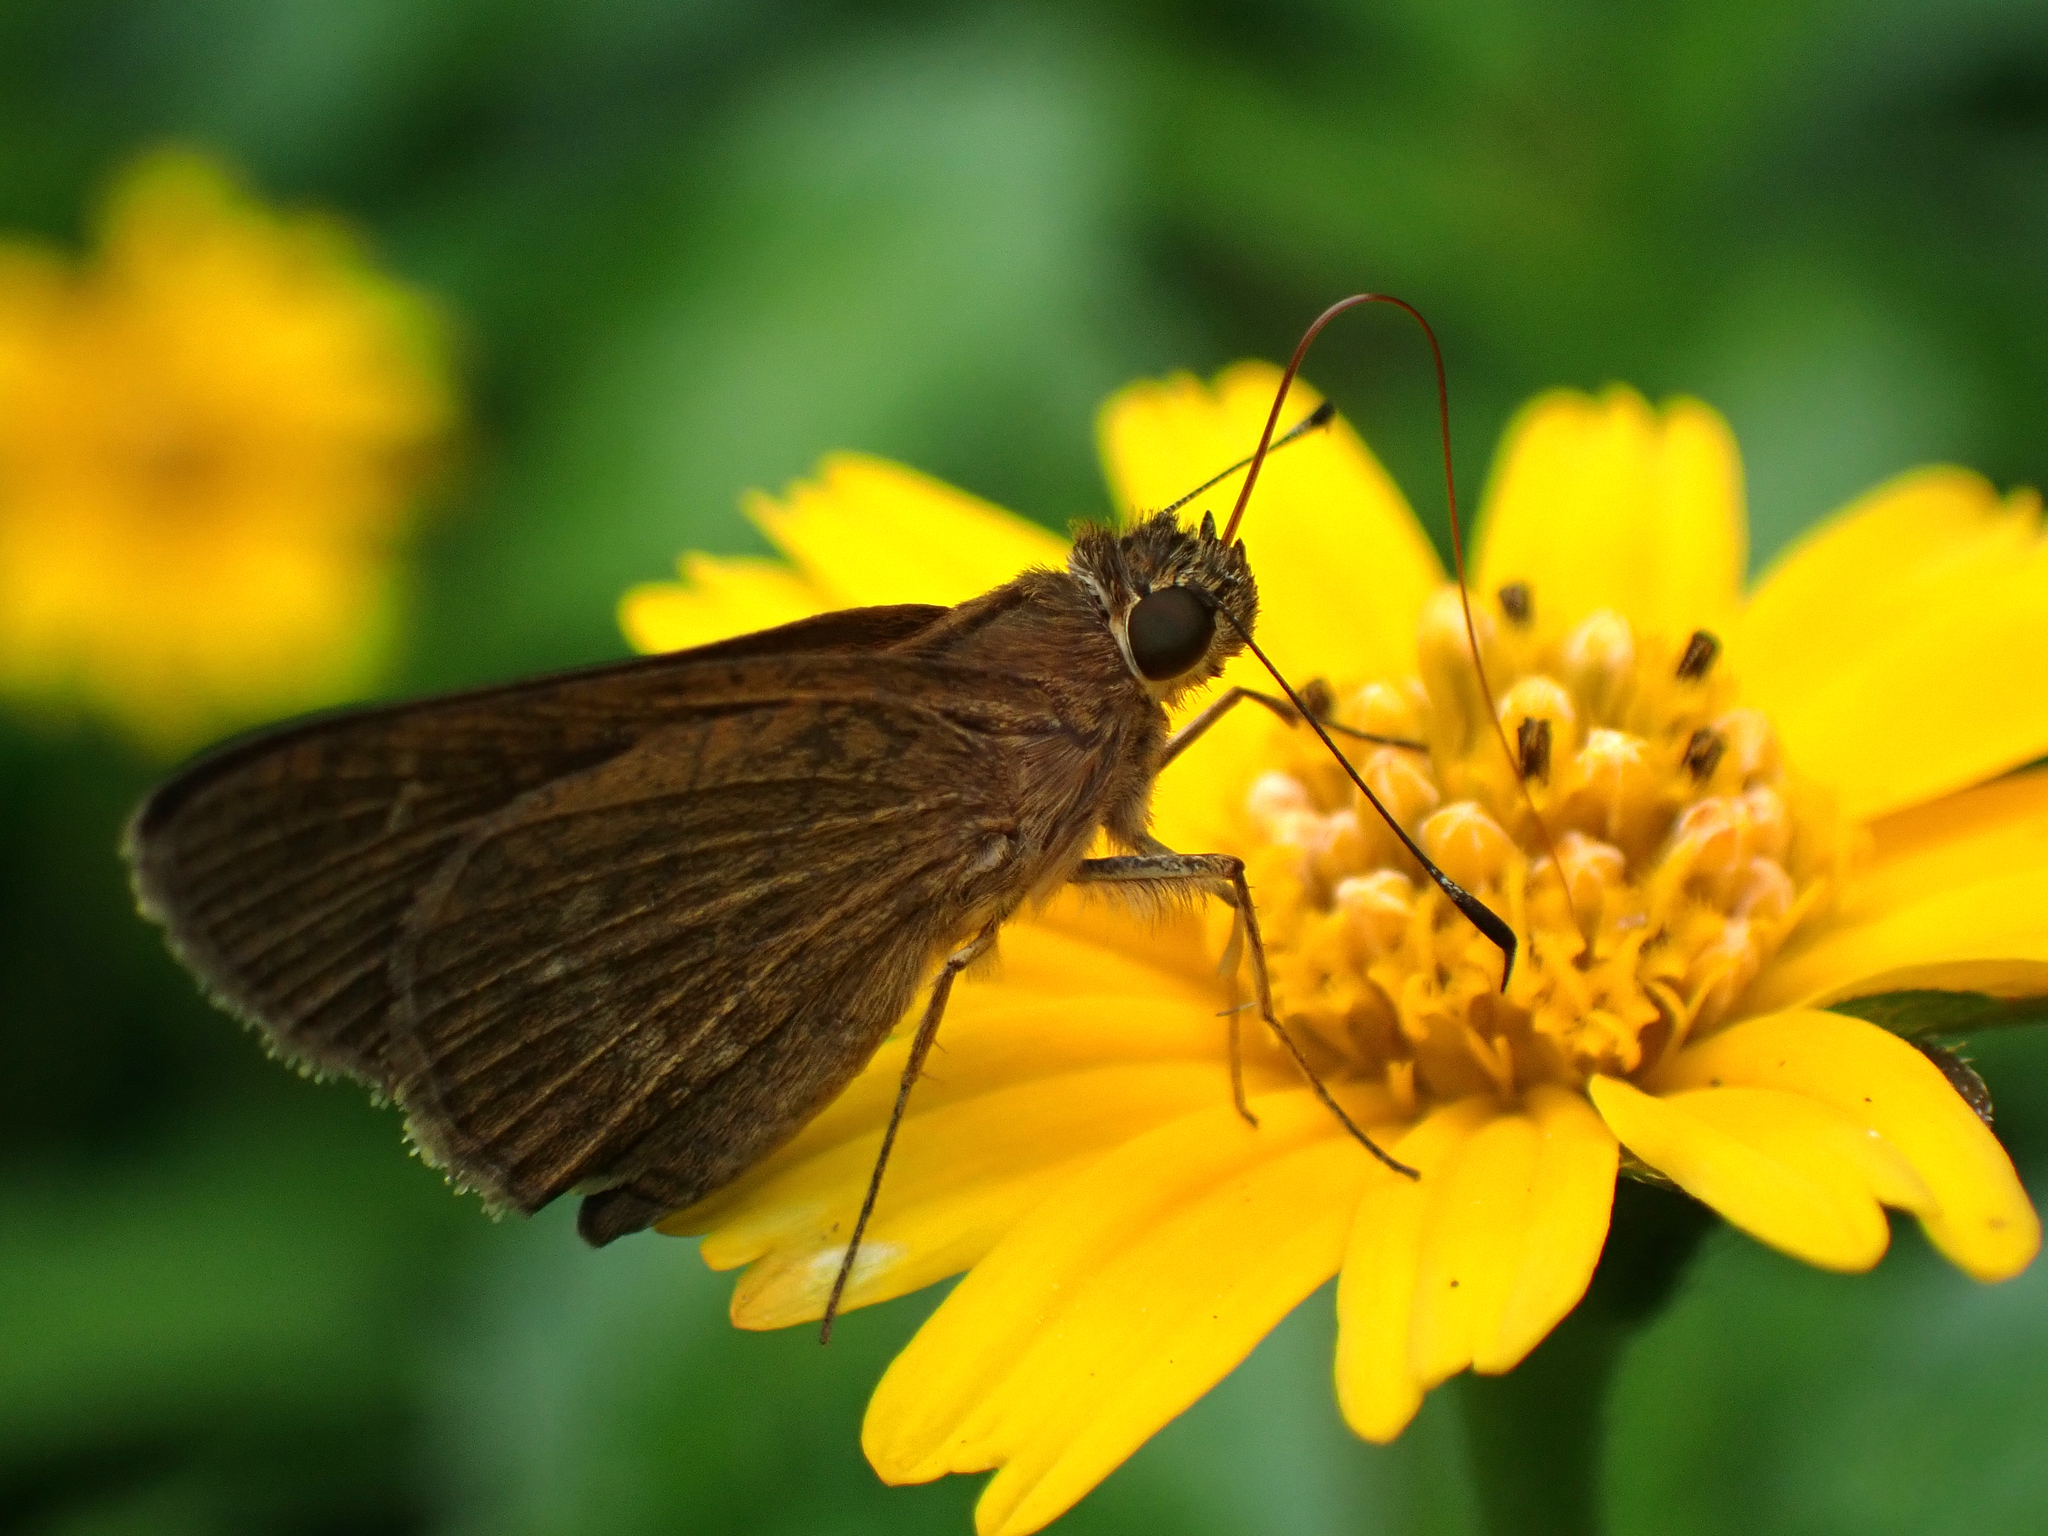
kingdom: Animalia
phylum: Arthropoda
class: Insecta
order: Lepidoptera
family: Hesperiidae
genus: Cymaenes
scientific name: Cymaenes tripunctus
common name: Dingy dotted skipper
